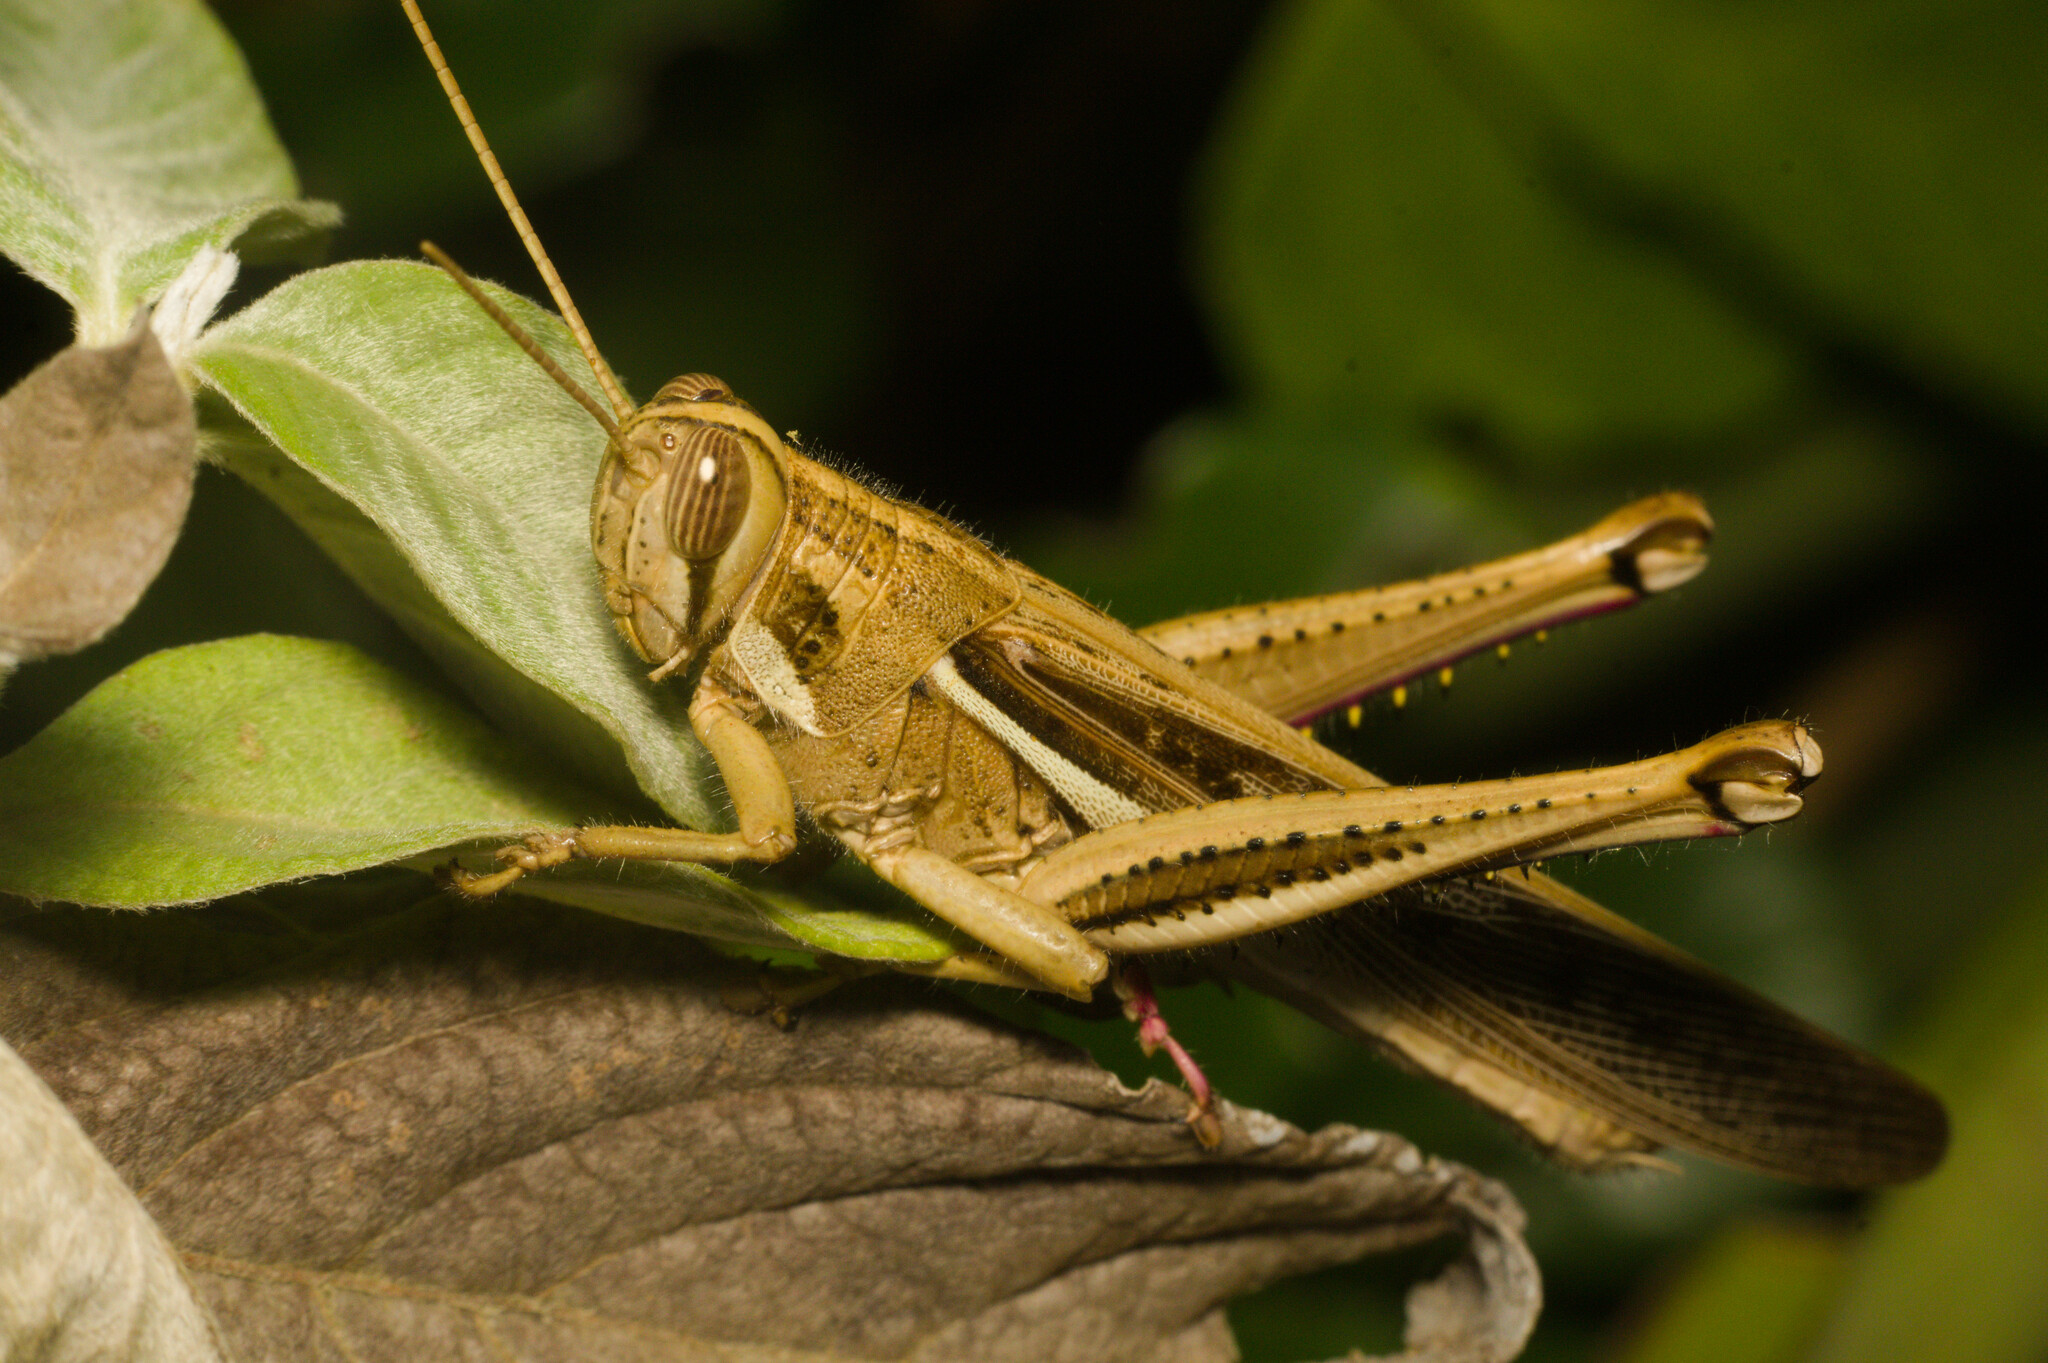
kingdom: Animalia
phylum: Arthropoda
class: Insecta
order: Orthoptera
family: Acrididae
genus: Schistocerca
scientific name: Schistocerca pallens
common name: Bird grasshopper
